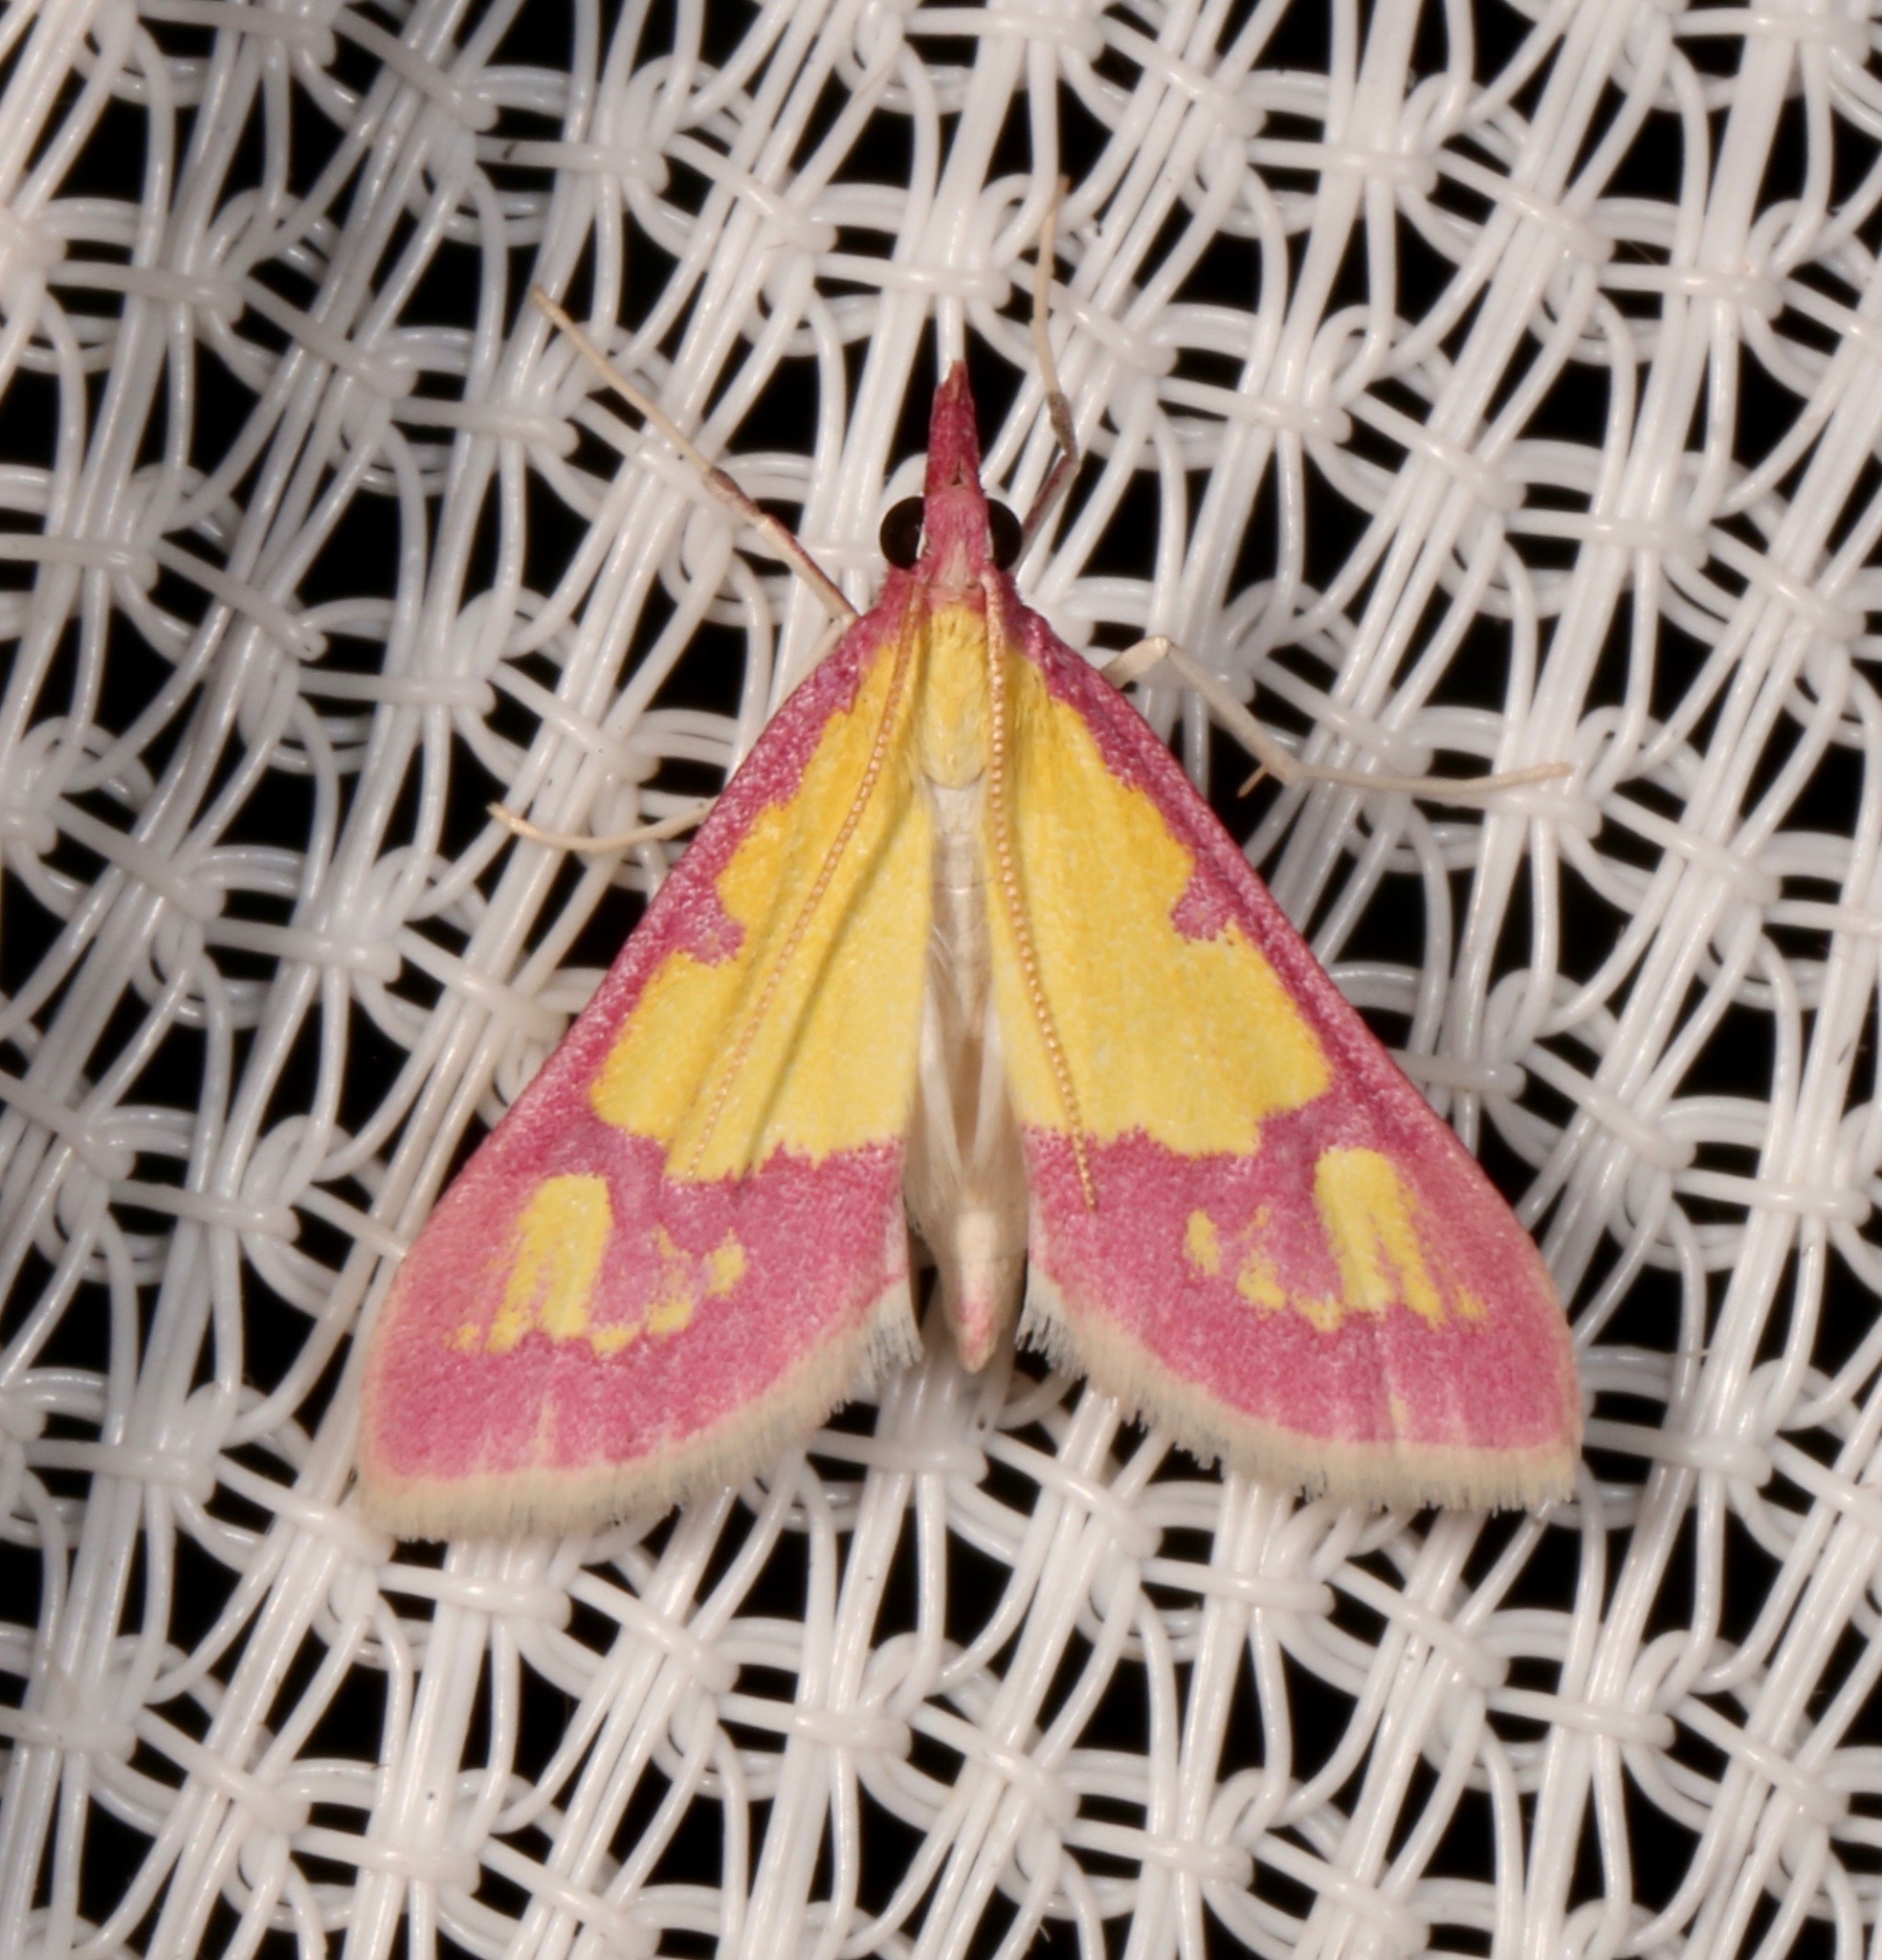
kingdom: Animalia
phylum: Arthropoda
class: Insecta
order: Lepidoptera
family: Crambidae
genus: Choristostigma
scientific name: Choristostigma roseopennalis
